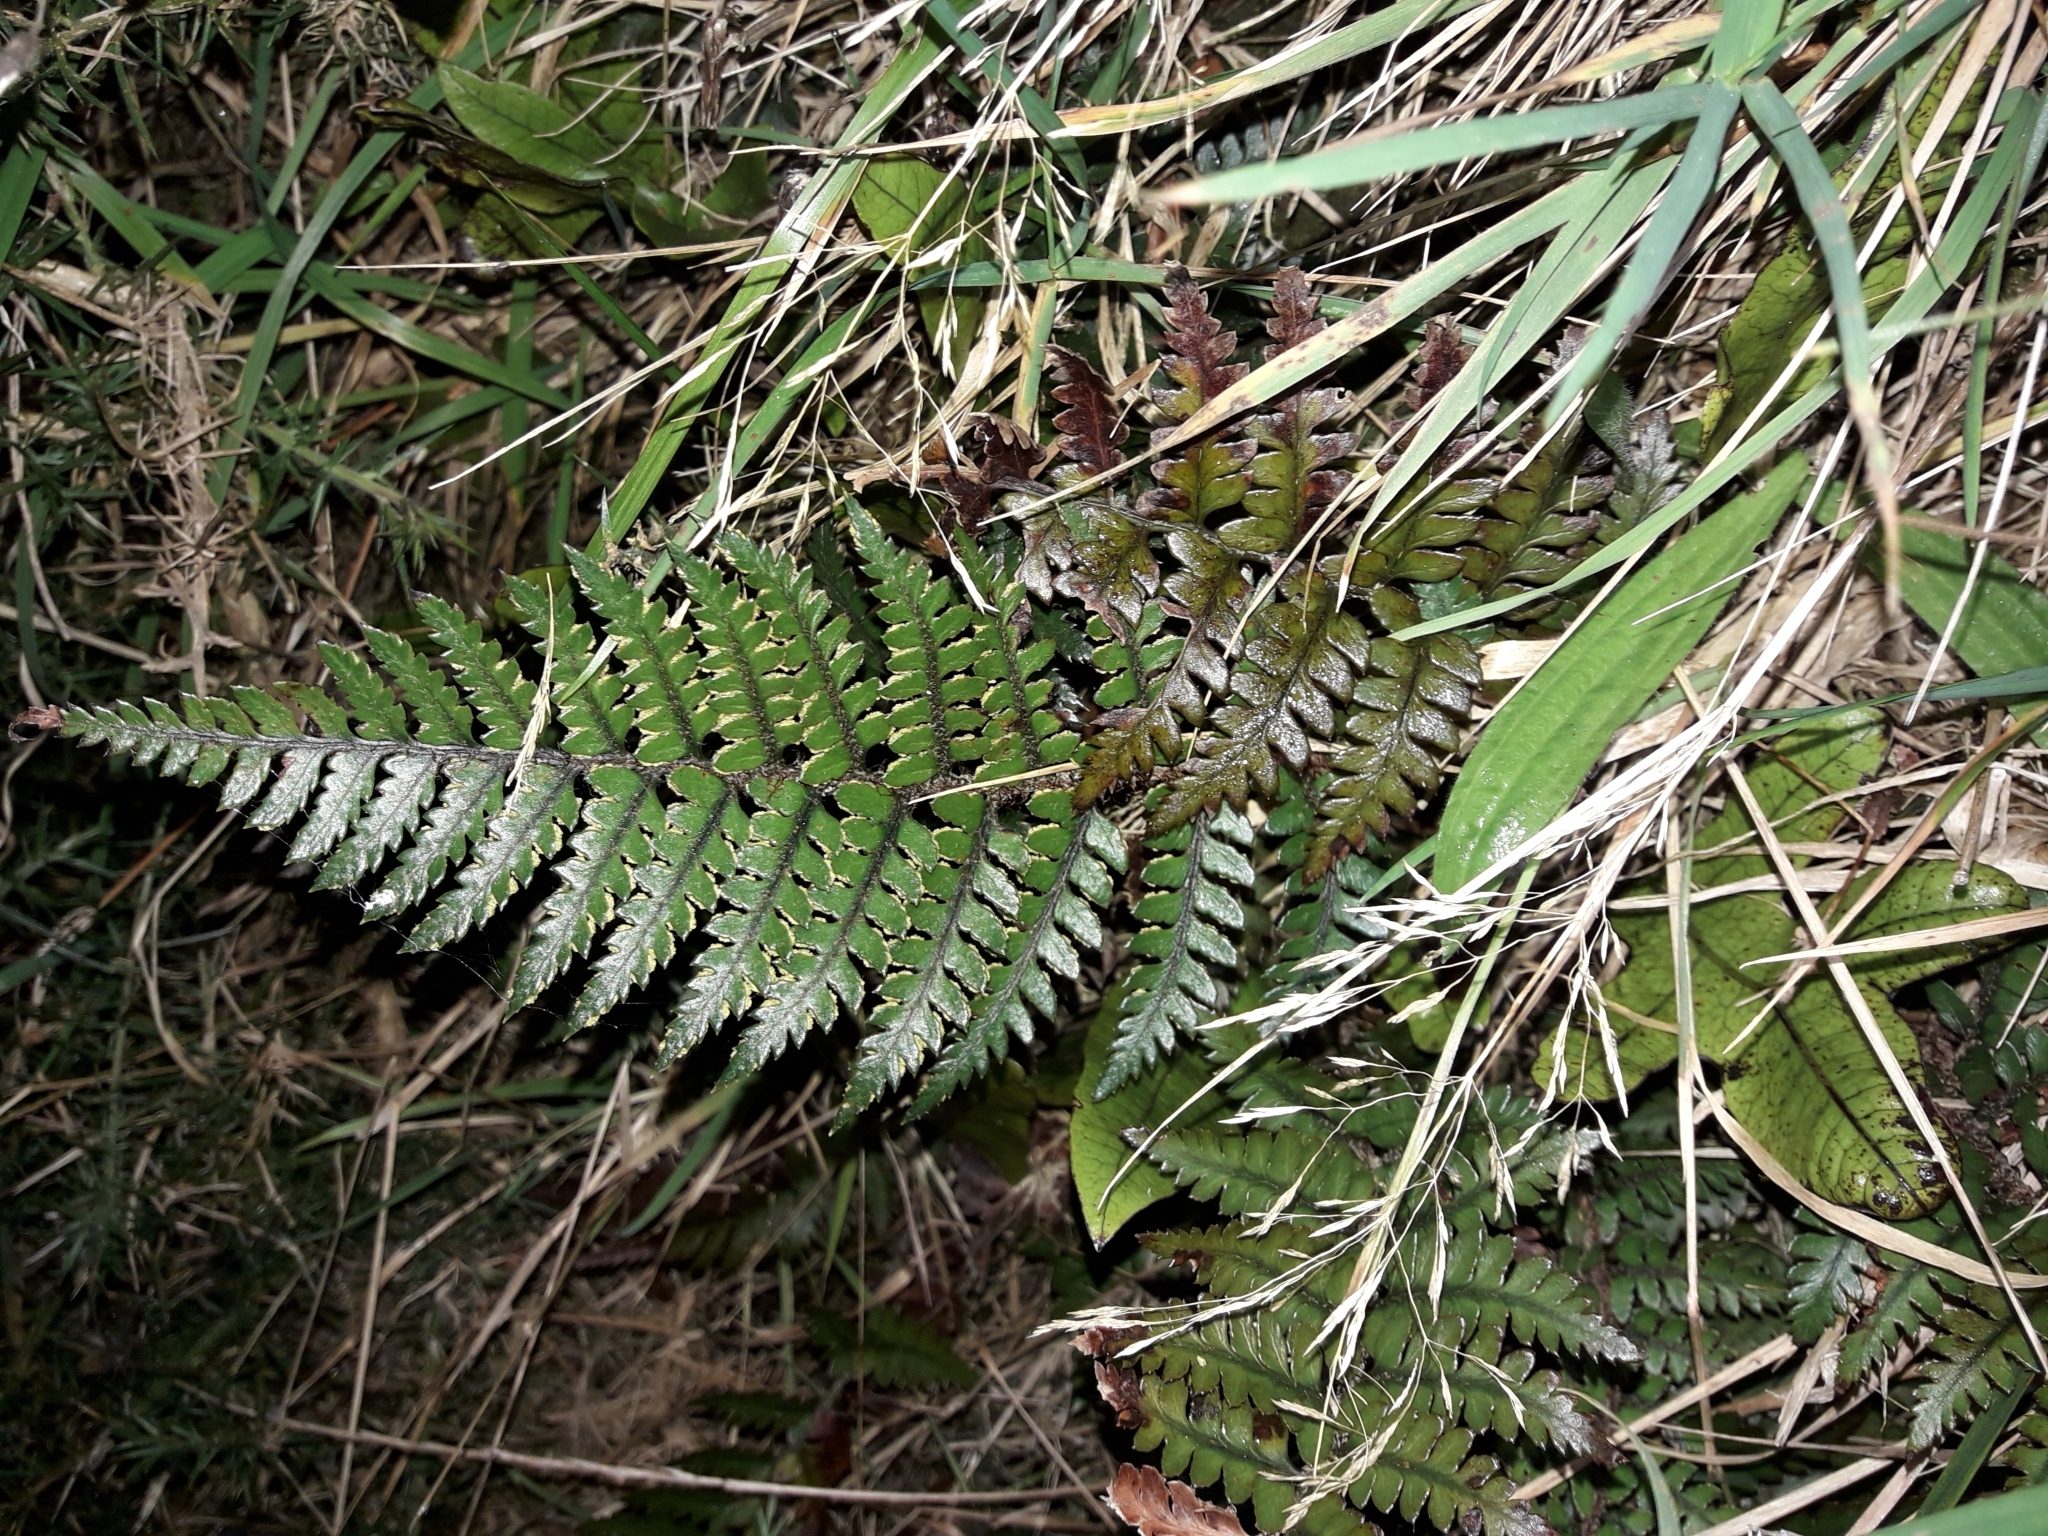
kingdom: Plantae
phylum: Tracheophyta
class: Polypodiopsida
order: Polypodiales
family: Dryopteridaceae
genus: Polystichum
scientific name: Polystichum neozelandicum
